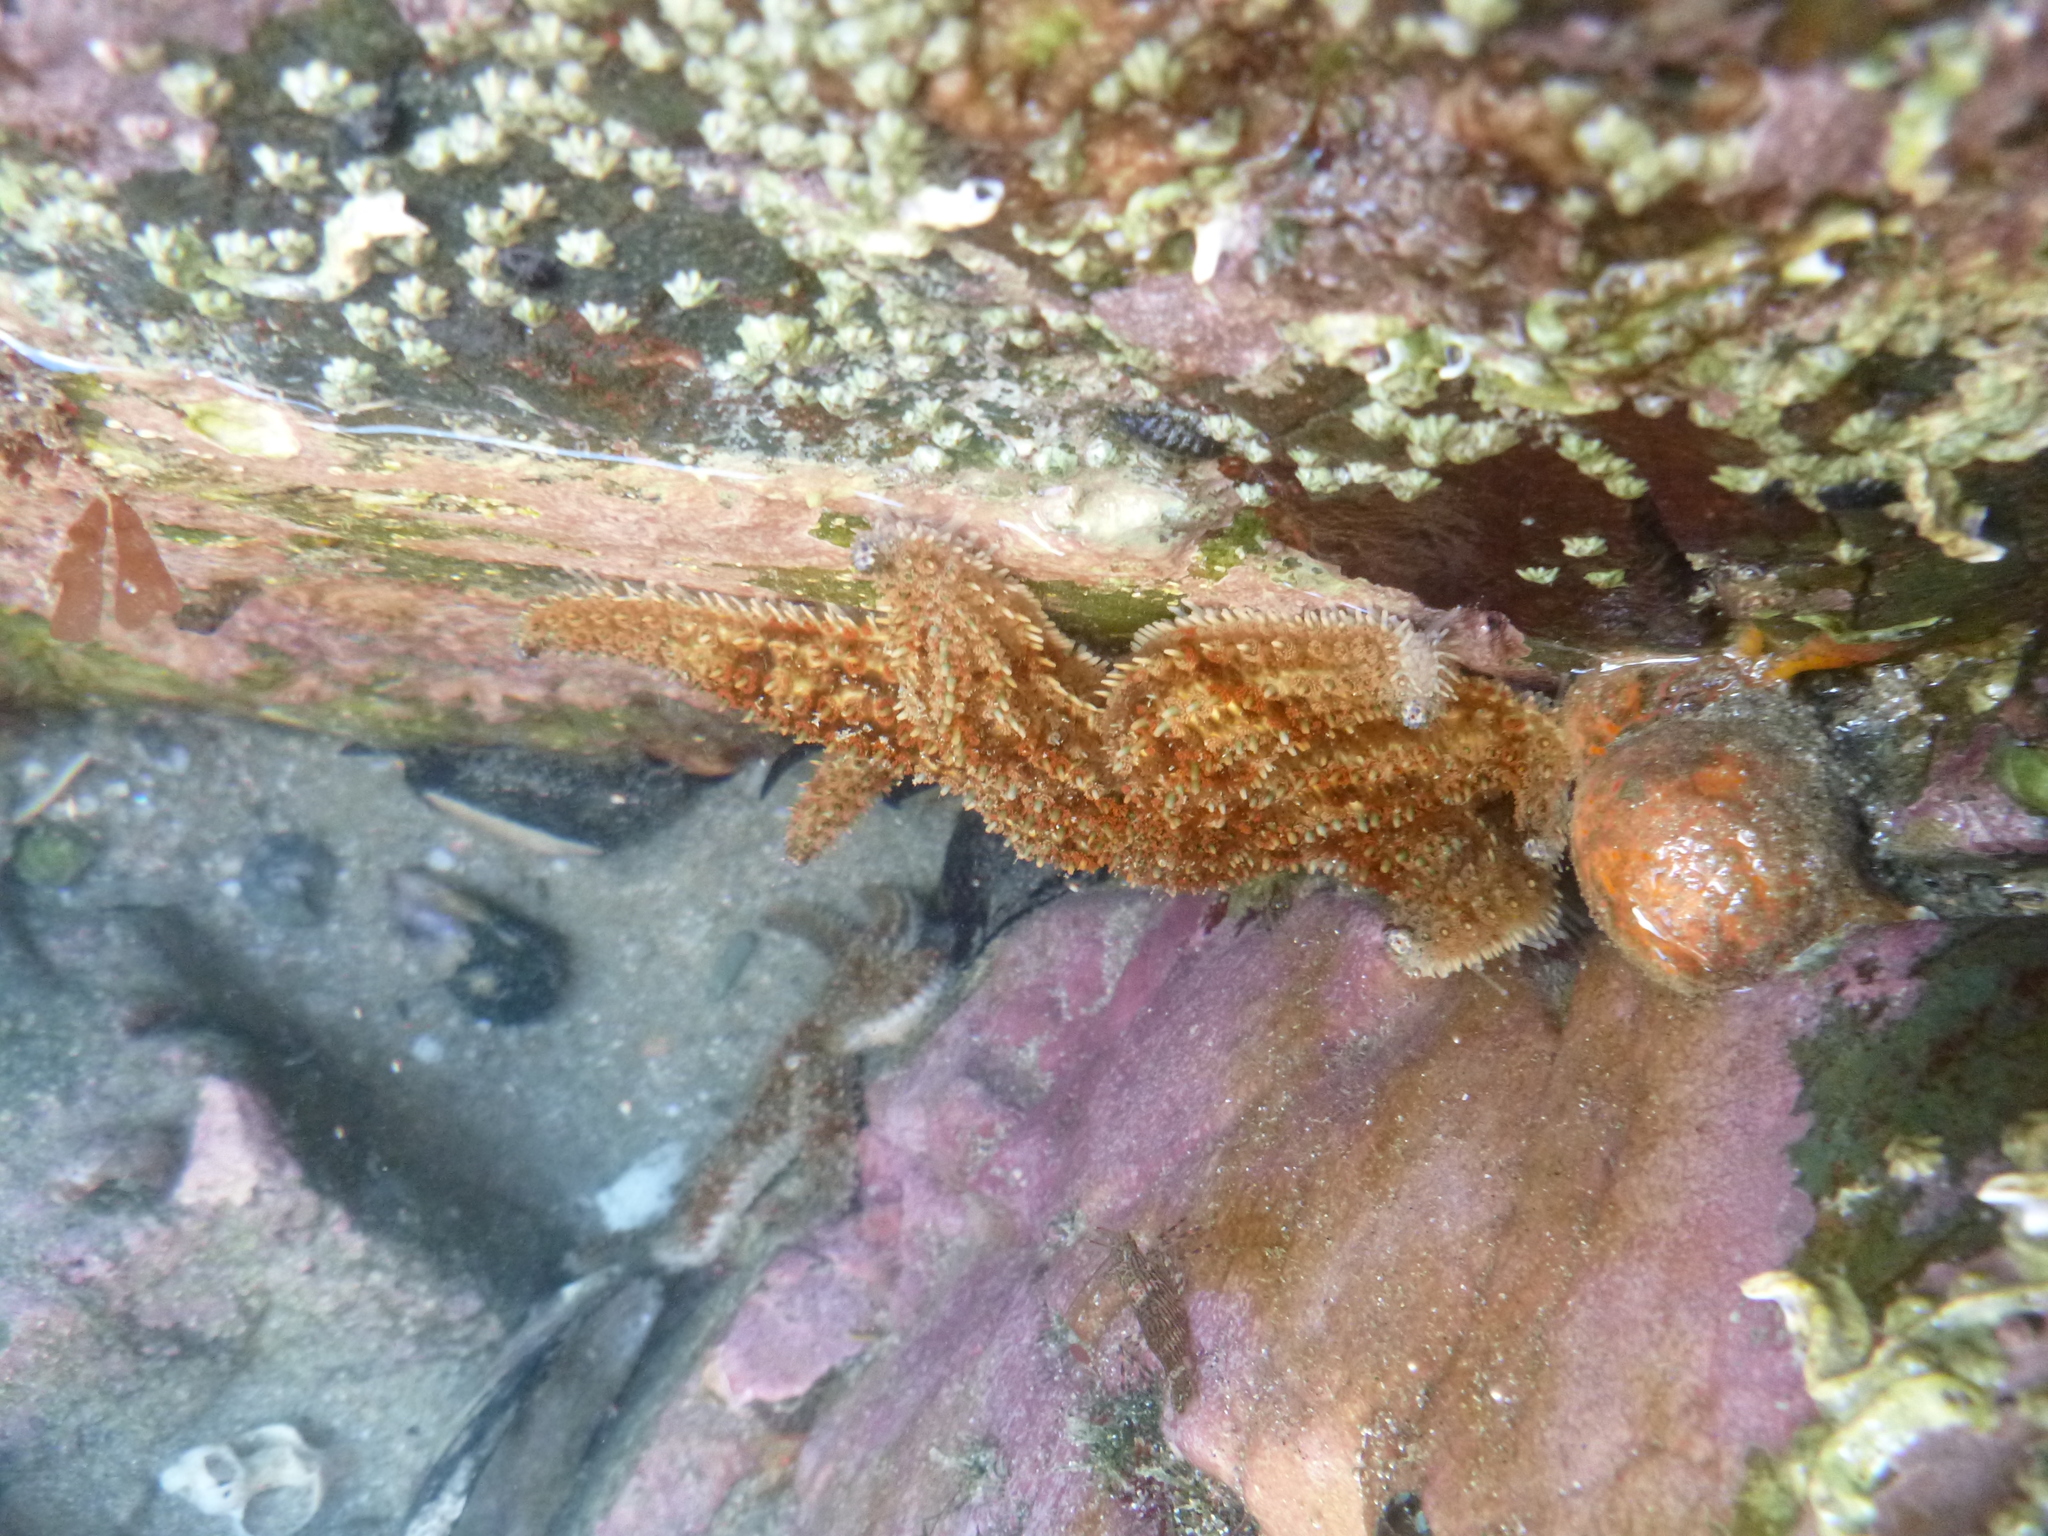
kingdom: Animalia
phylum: Echinodermata
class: Asteroidea
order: Forcipulatida
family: Asteriidae
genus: Coscinasterias
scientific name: Coscinasterias muricata
